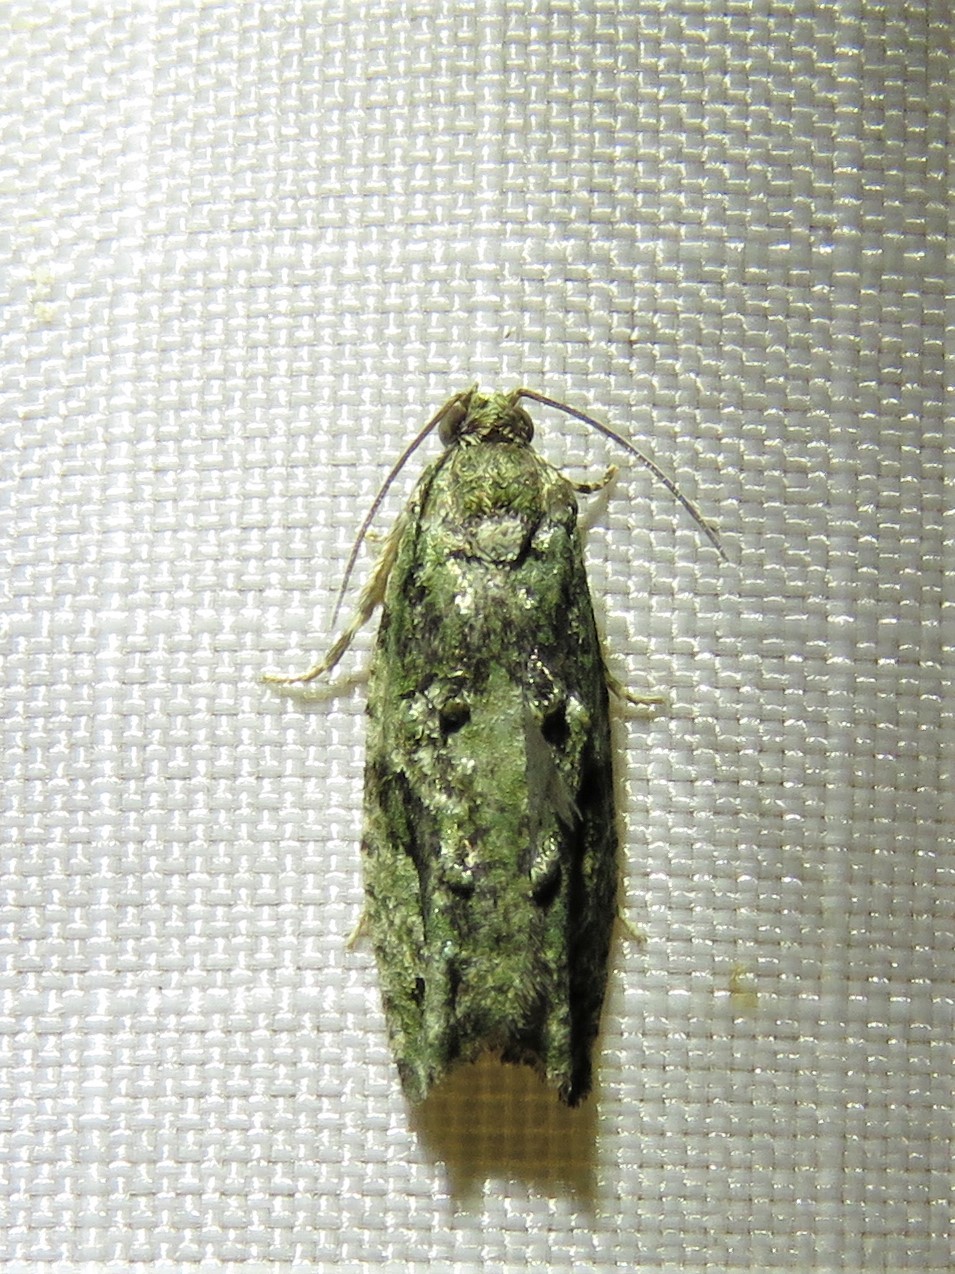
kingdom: Animalia
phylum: Arthropoda
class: Insecta
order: Lepidoptera
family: Tortricidae
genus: Proteoteras
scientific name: Proteoteras aesculana
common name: Maple twig borer moth
